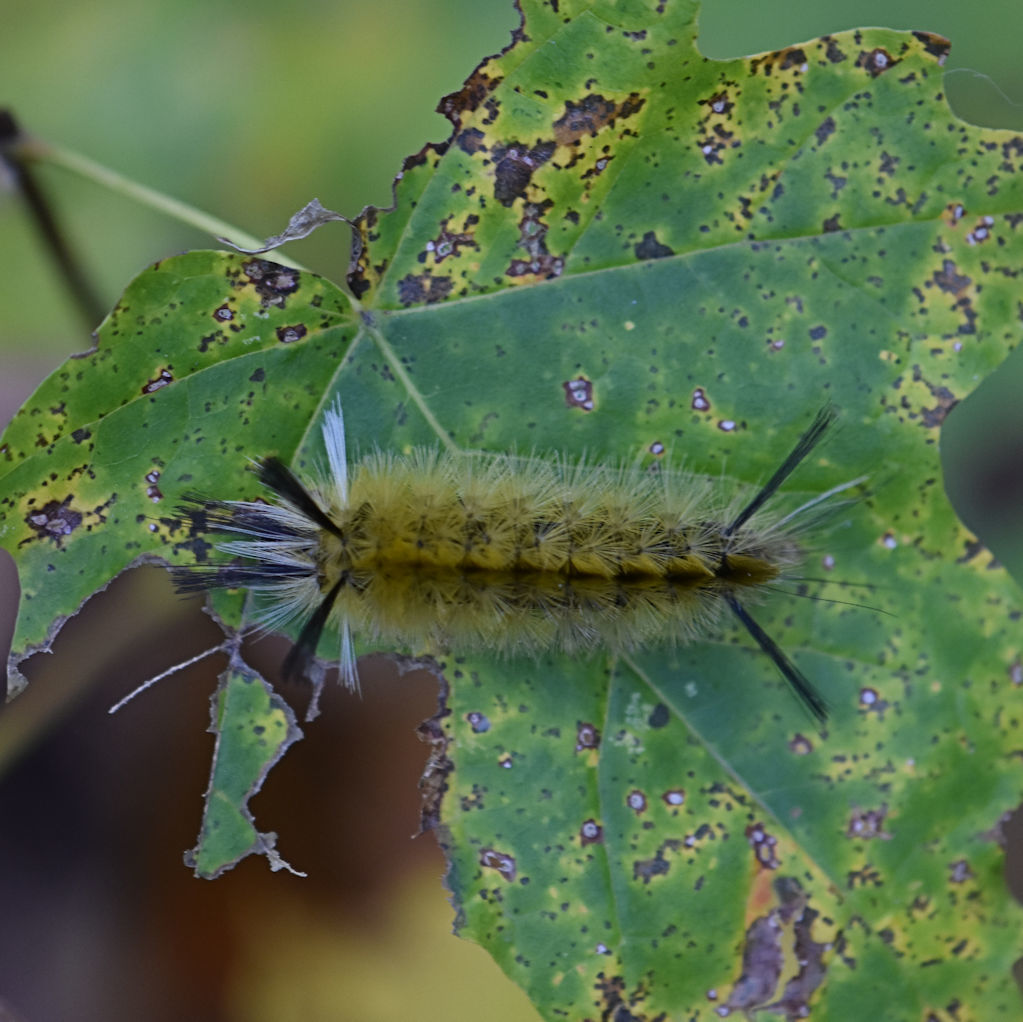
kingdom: Animalia
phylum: Arthropoda
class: Insecta
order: Lepidoptera
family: Erebidae
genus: Halysidota
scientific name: Halysidota tessellaris
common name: Banded tussock moth
